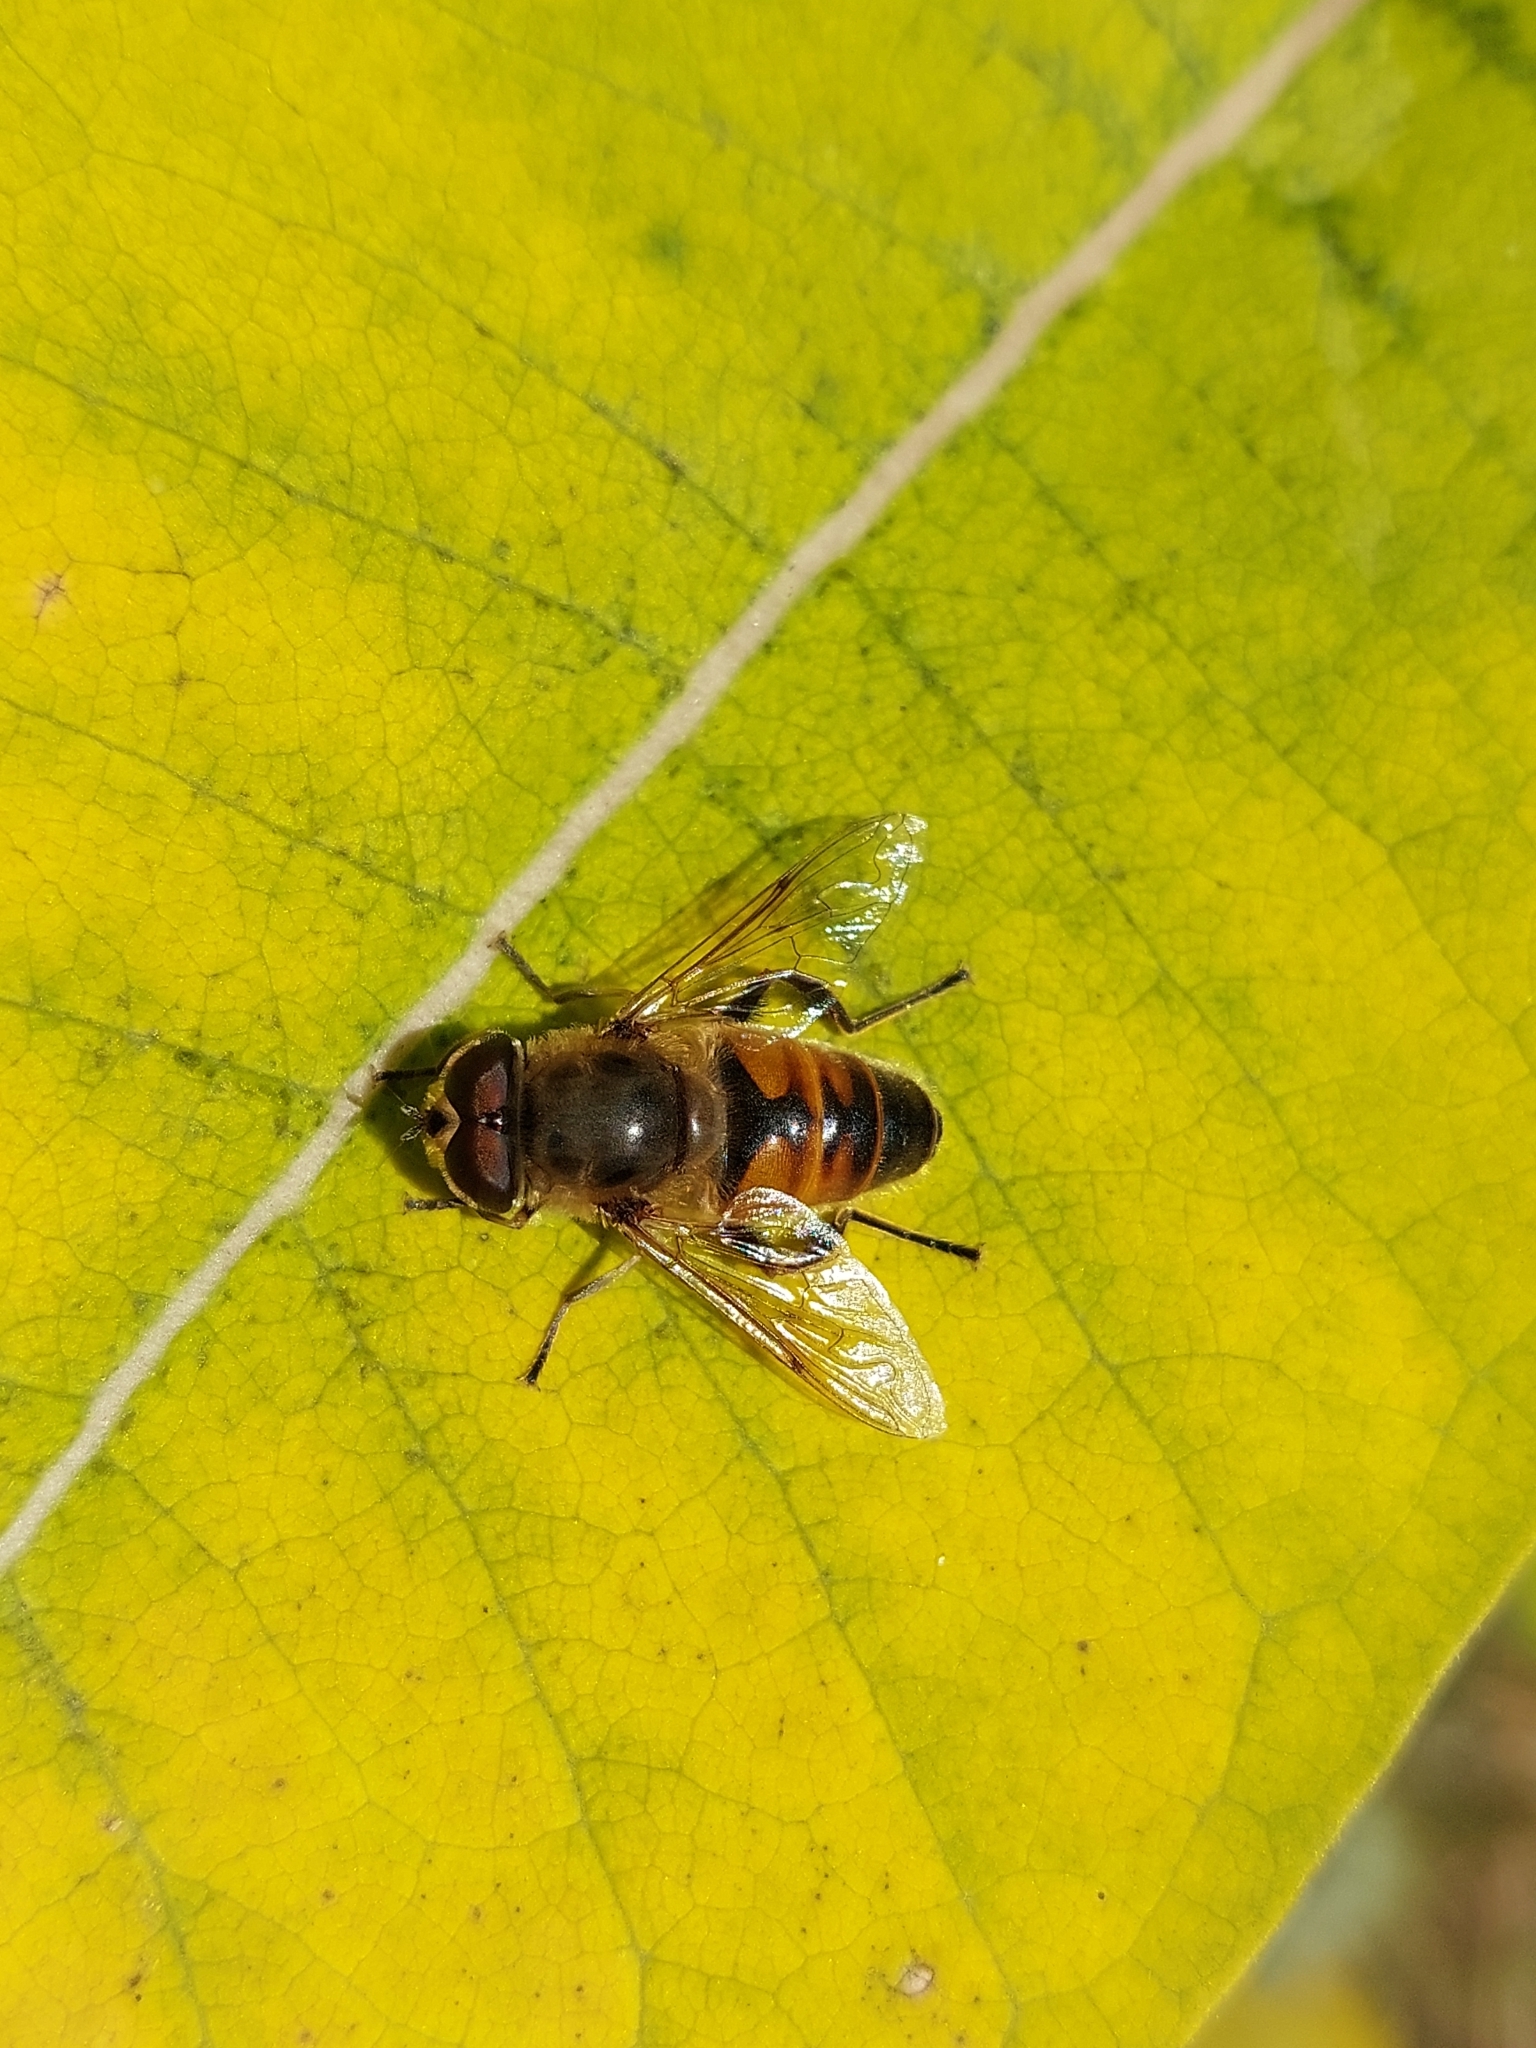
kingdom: Animalia
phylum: Arthropoda
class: Insecta
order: Diptera
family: Syrphidae
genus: Eristalis
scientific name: Eristalis tenax
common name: Drone fly
